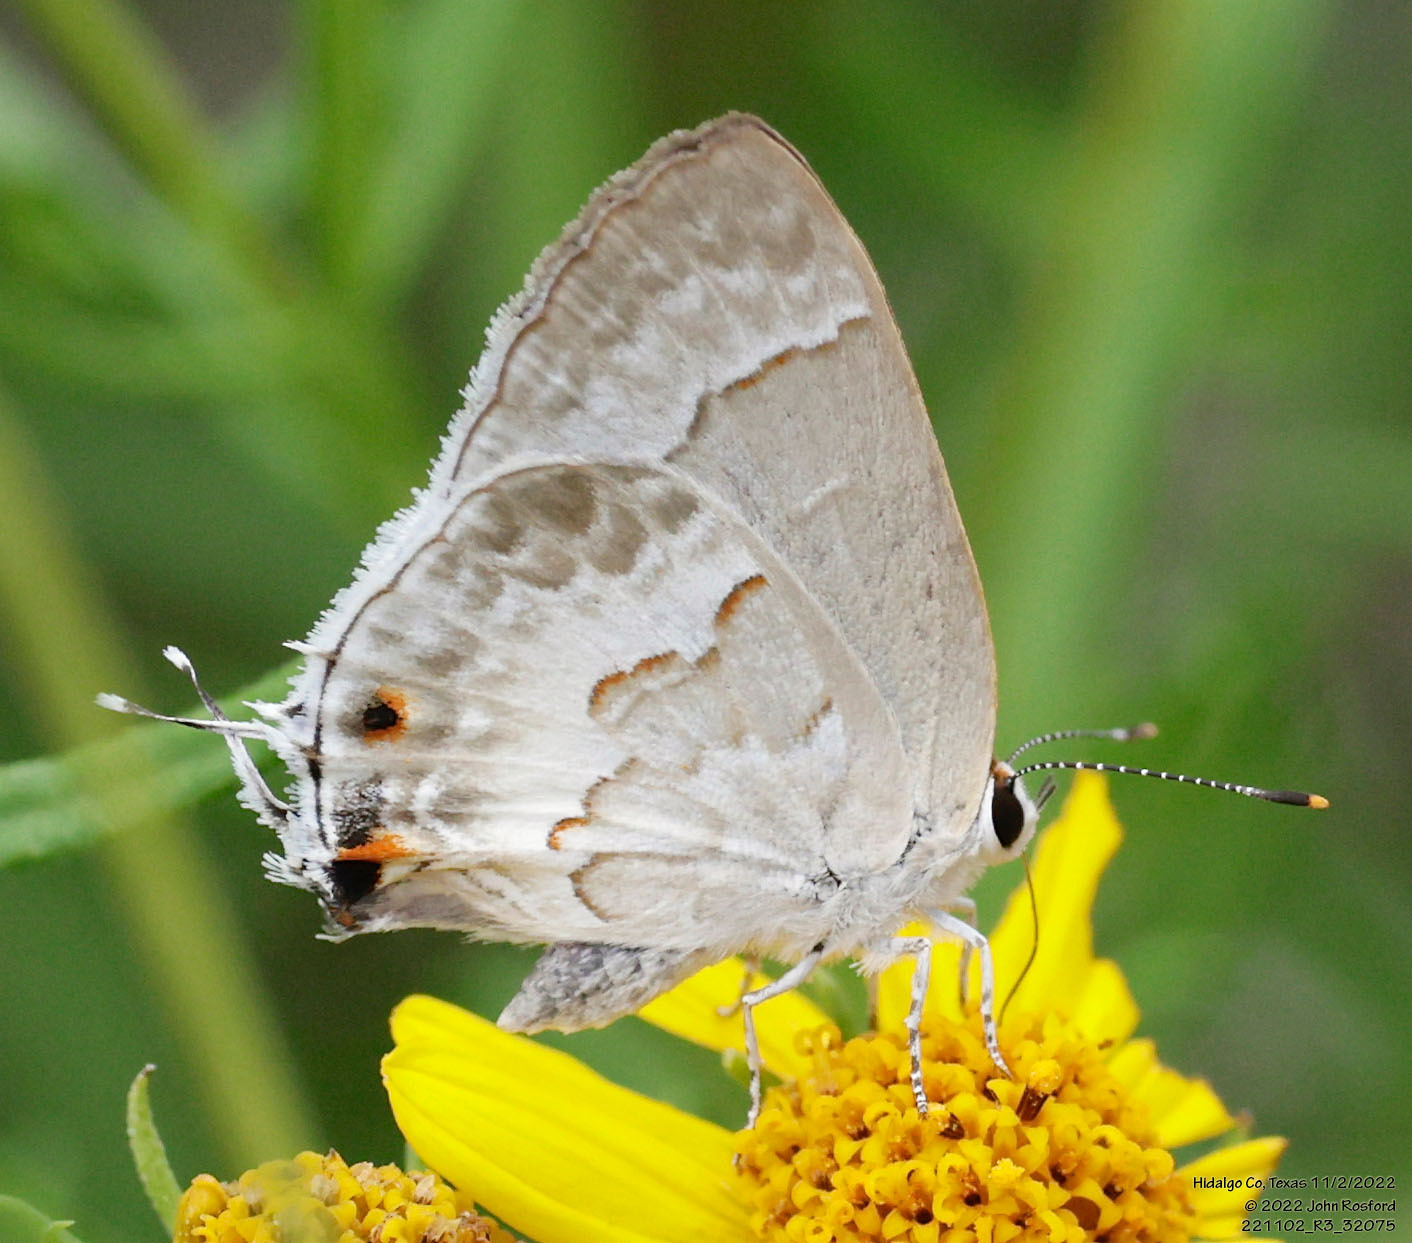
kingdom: Animalia
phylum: Arthropoda
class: Insecta
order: Lepidoptera
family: Lycaenidae
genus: Strymon
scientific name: Strymon albata
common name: White scrub-hairstreak
